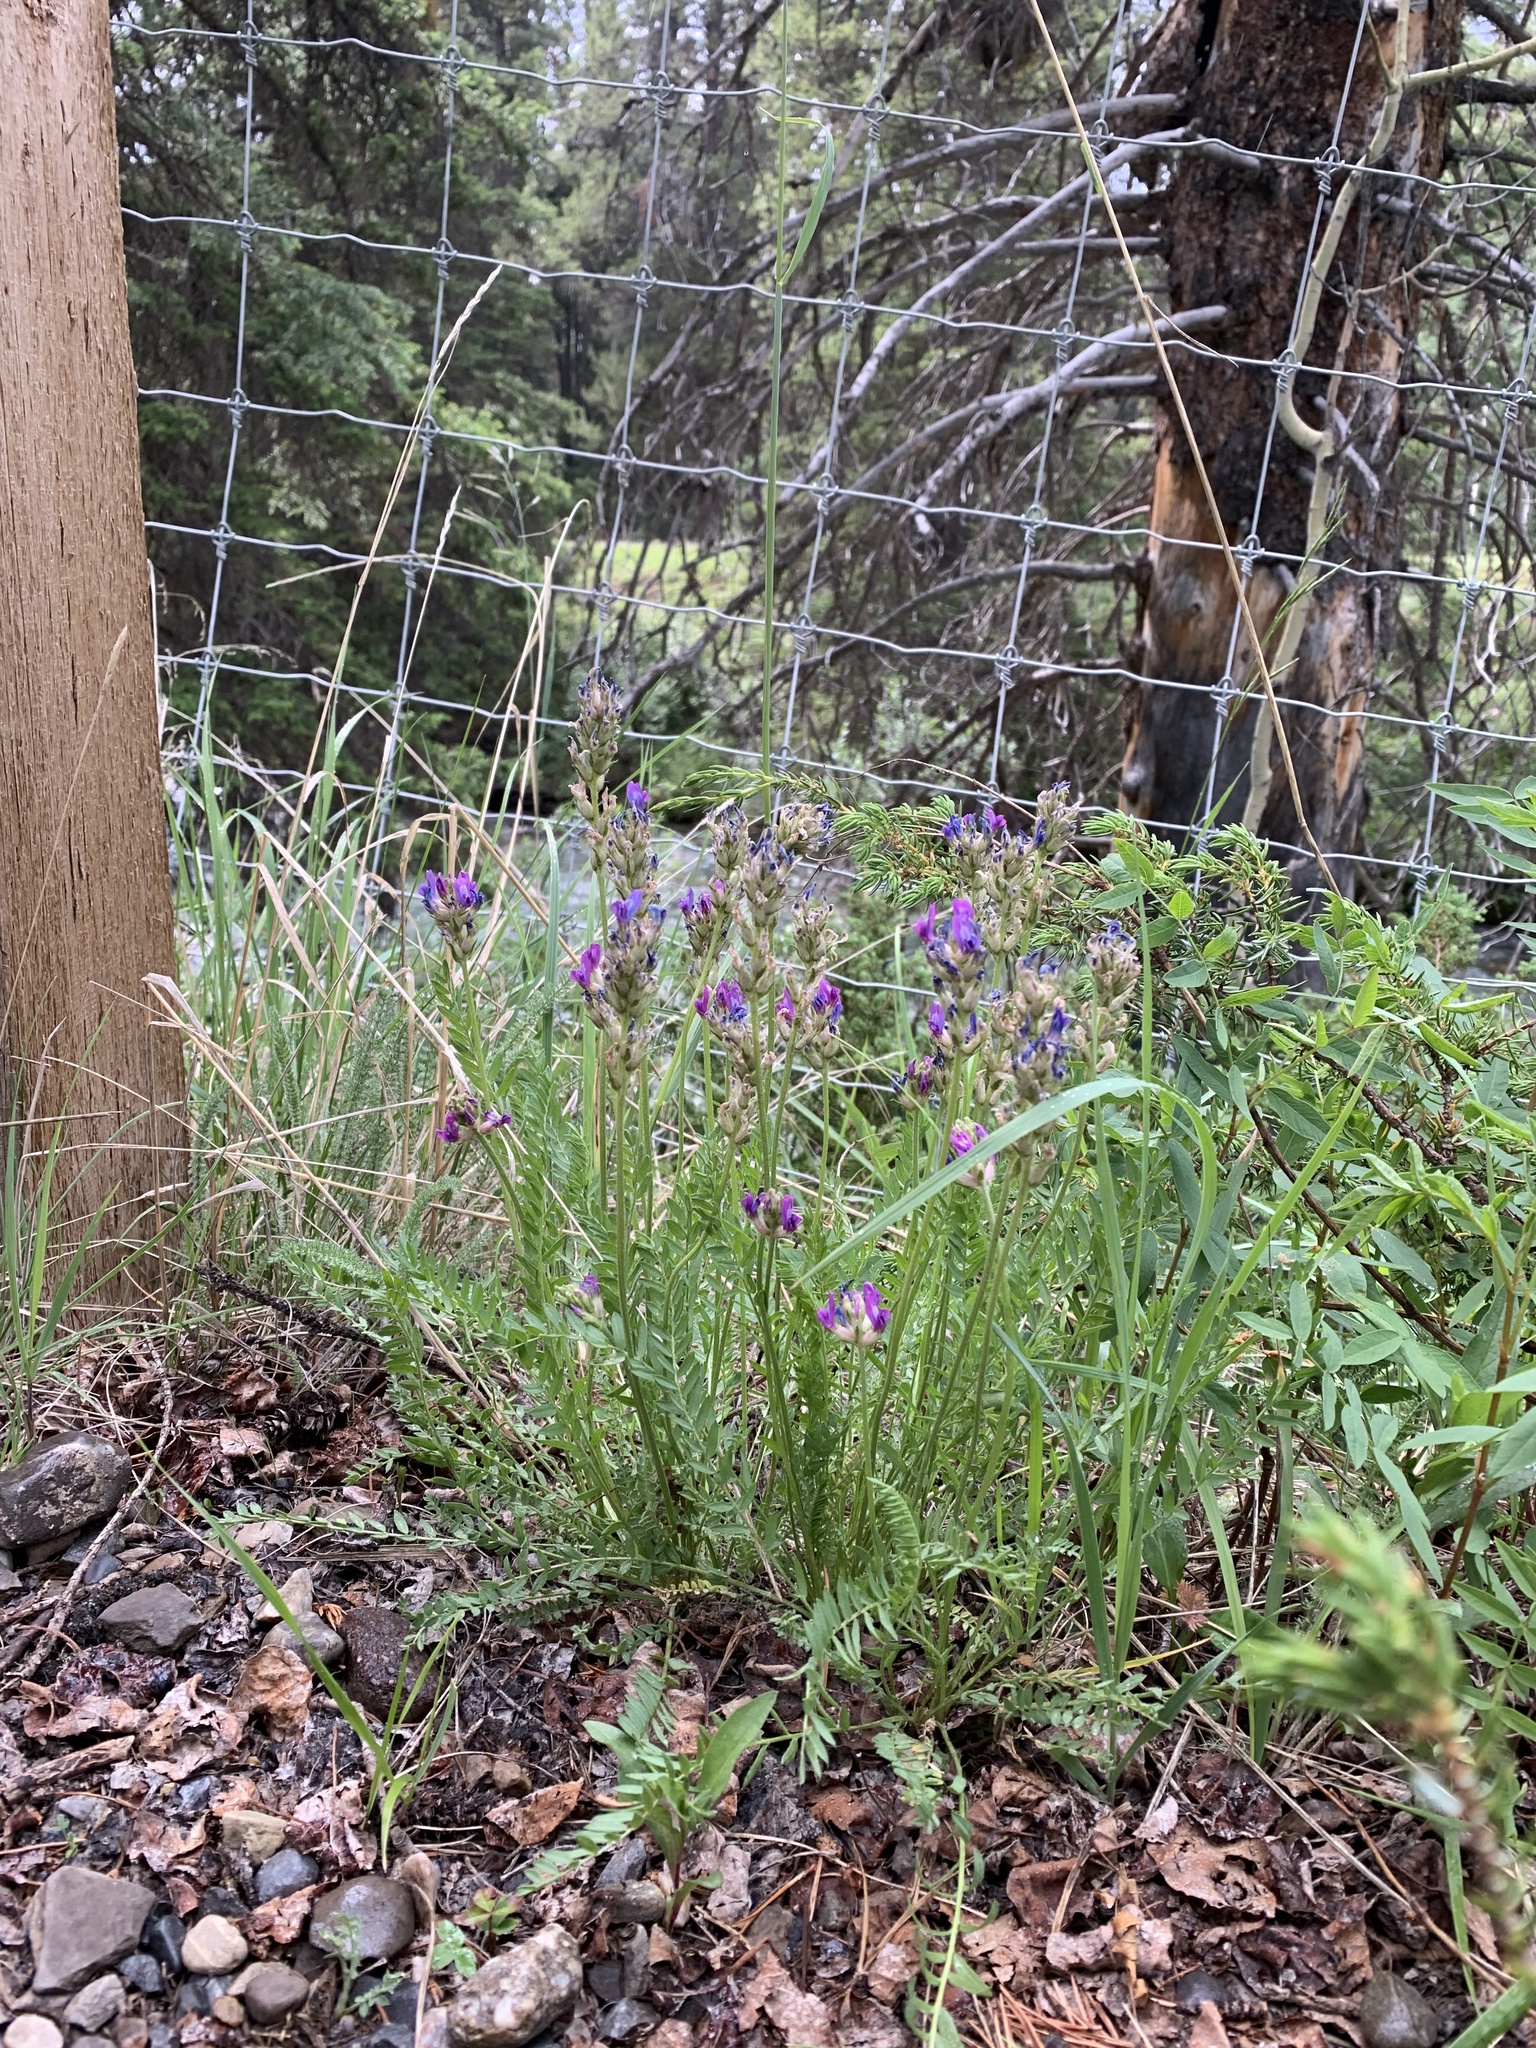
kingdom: Plantae
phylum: Tracheophyta
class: Magnoliopsida
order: Fabales
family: Fabaceae
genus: Oxytropis
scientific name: Oxytropis borealis
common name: Boreal locoweed
